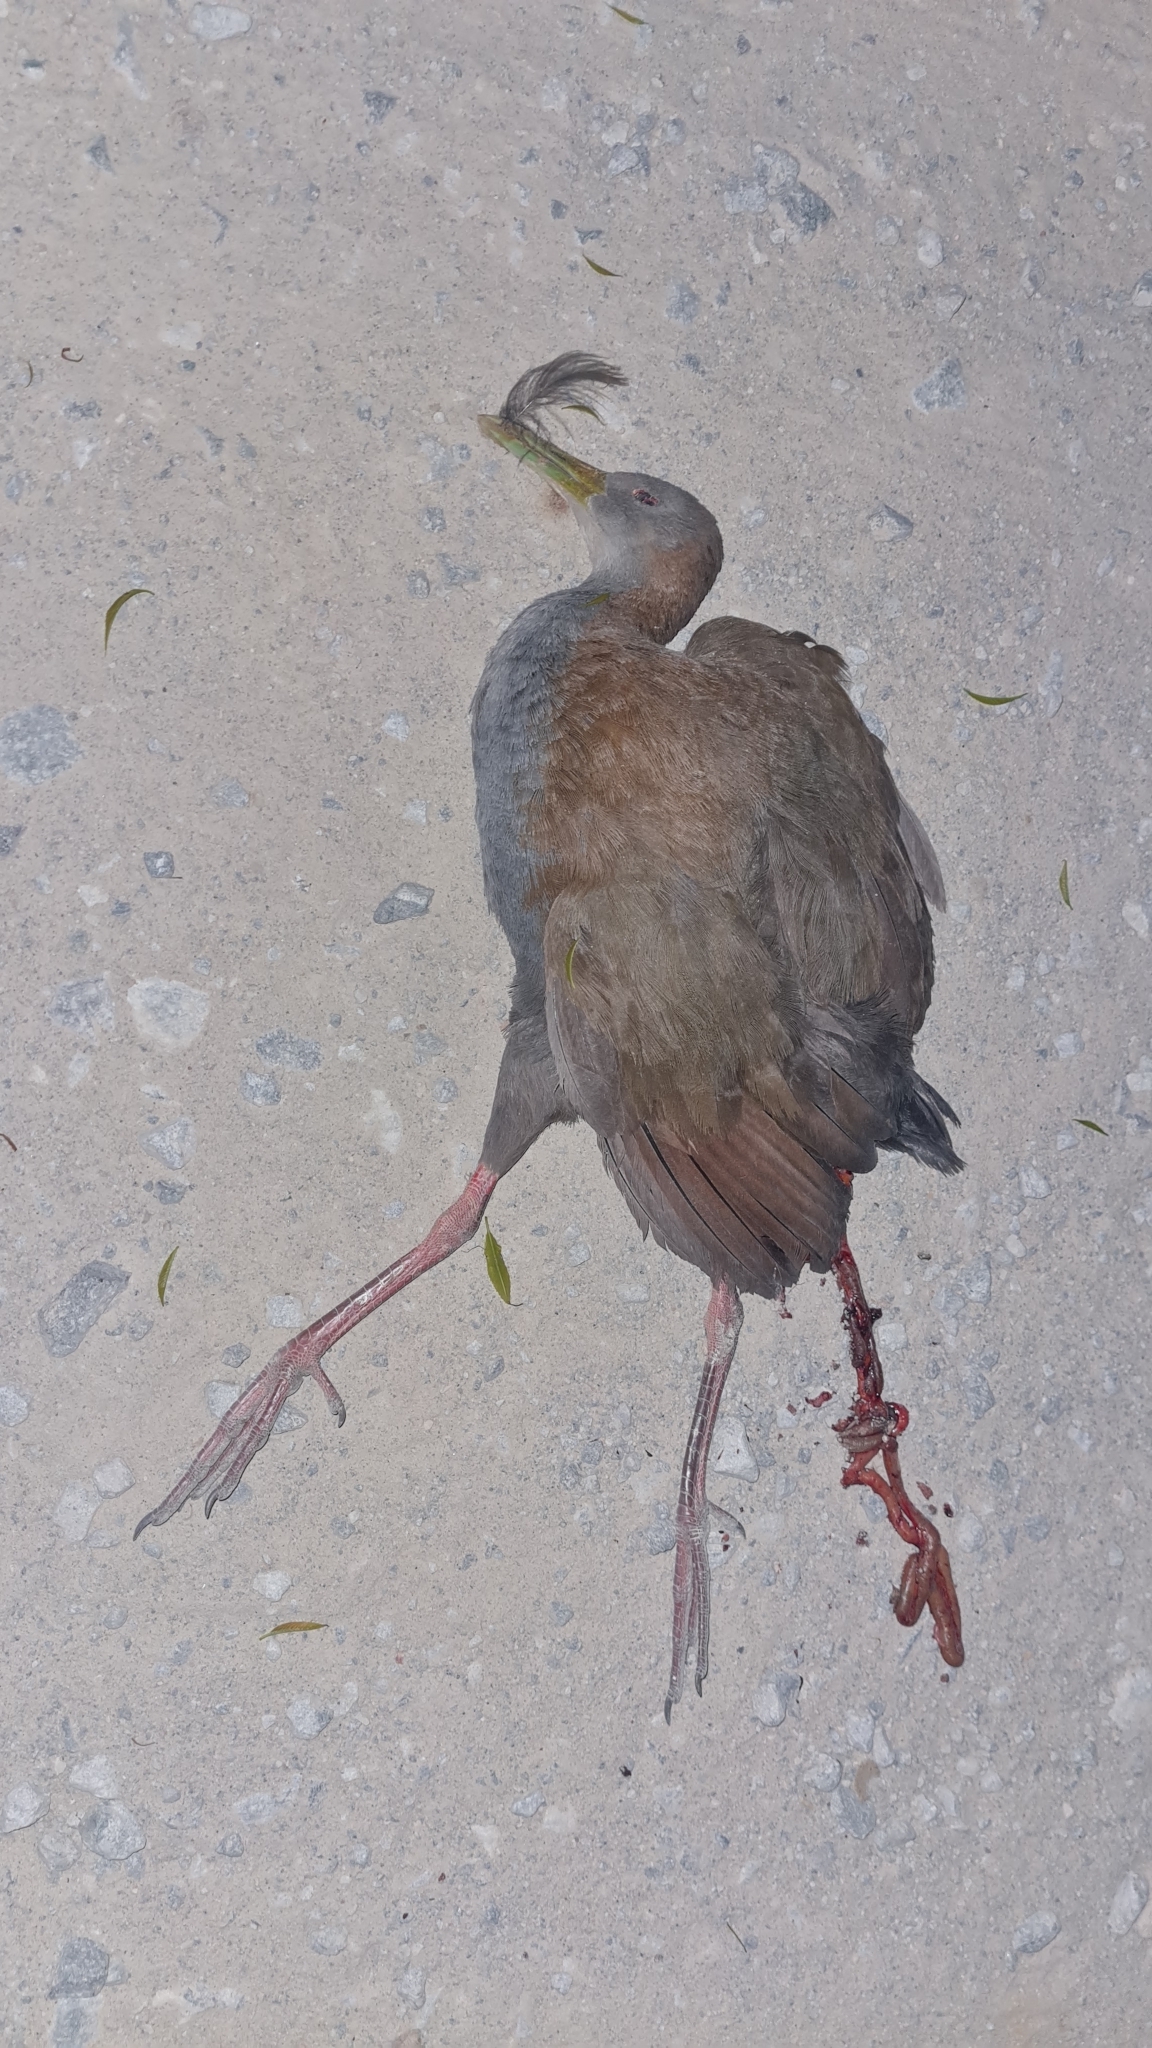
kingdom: Animalia
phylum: Chordata
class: Aves
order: Gruiformes
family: Rallidae
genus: Aramides
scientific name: Aramides saracura
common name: Slaty-breasted wood rail
